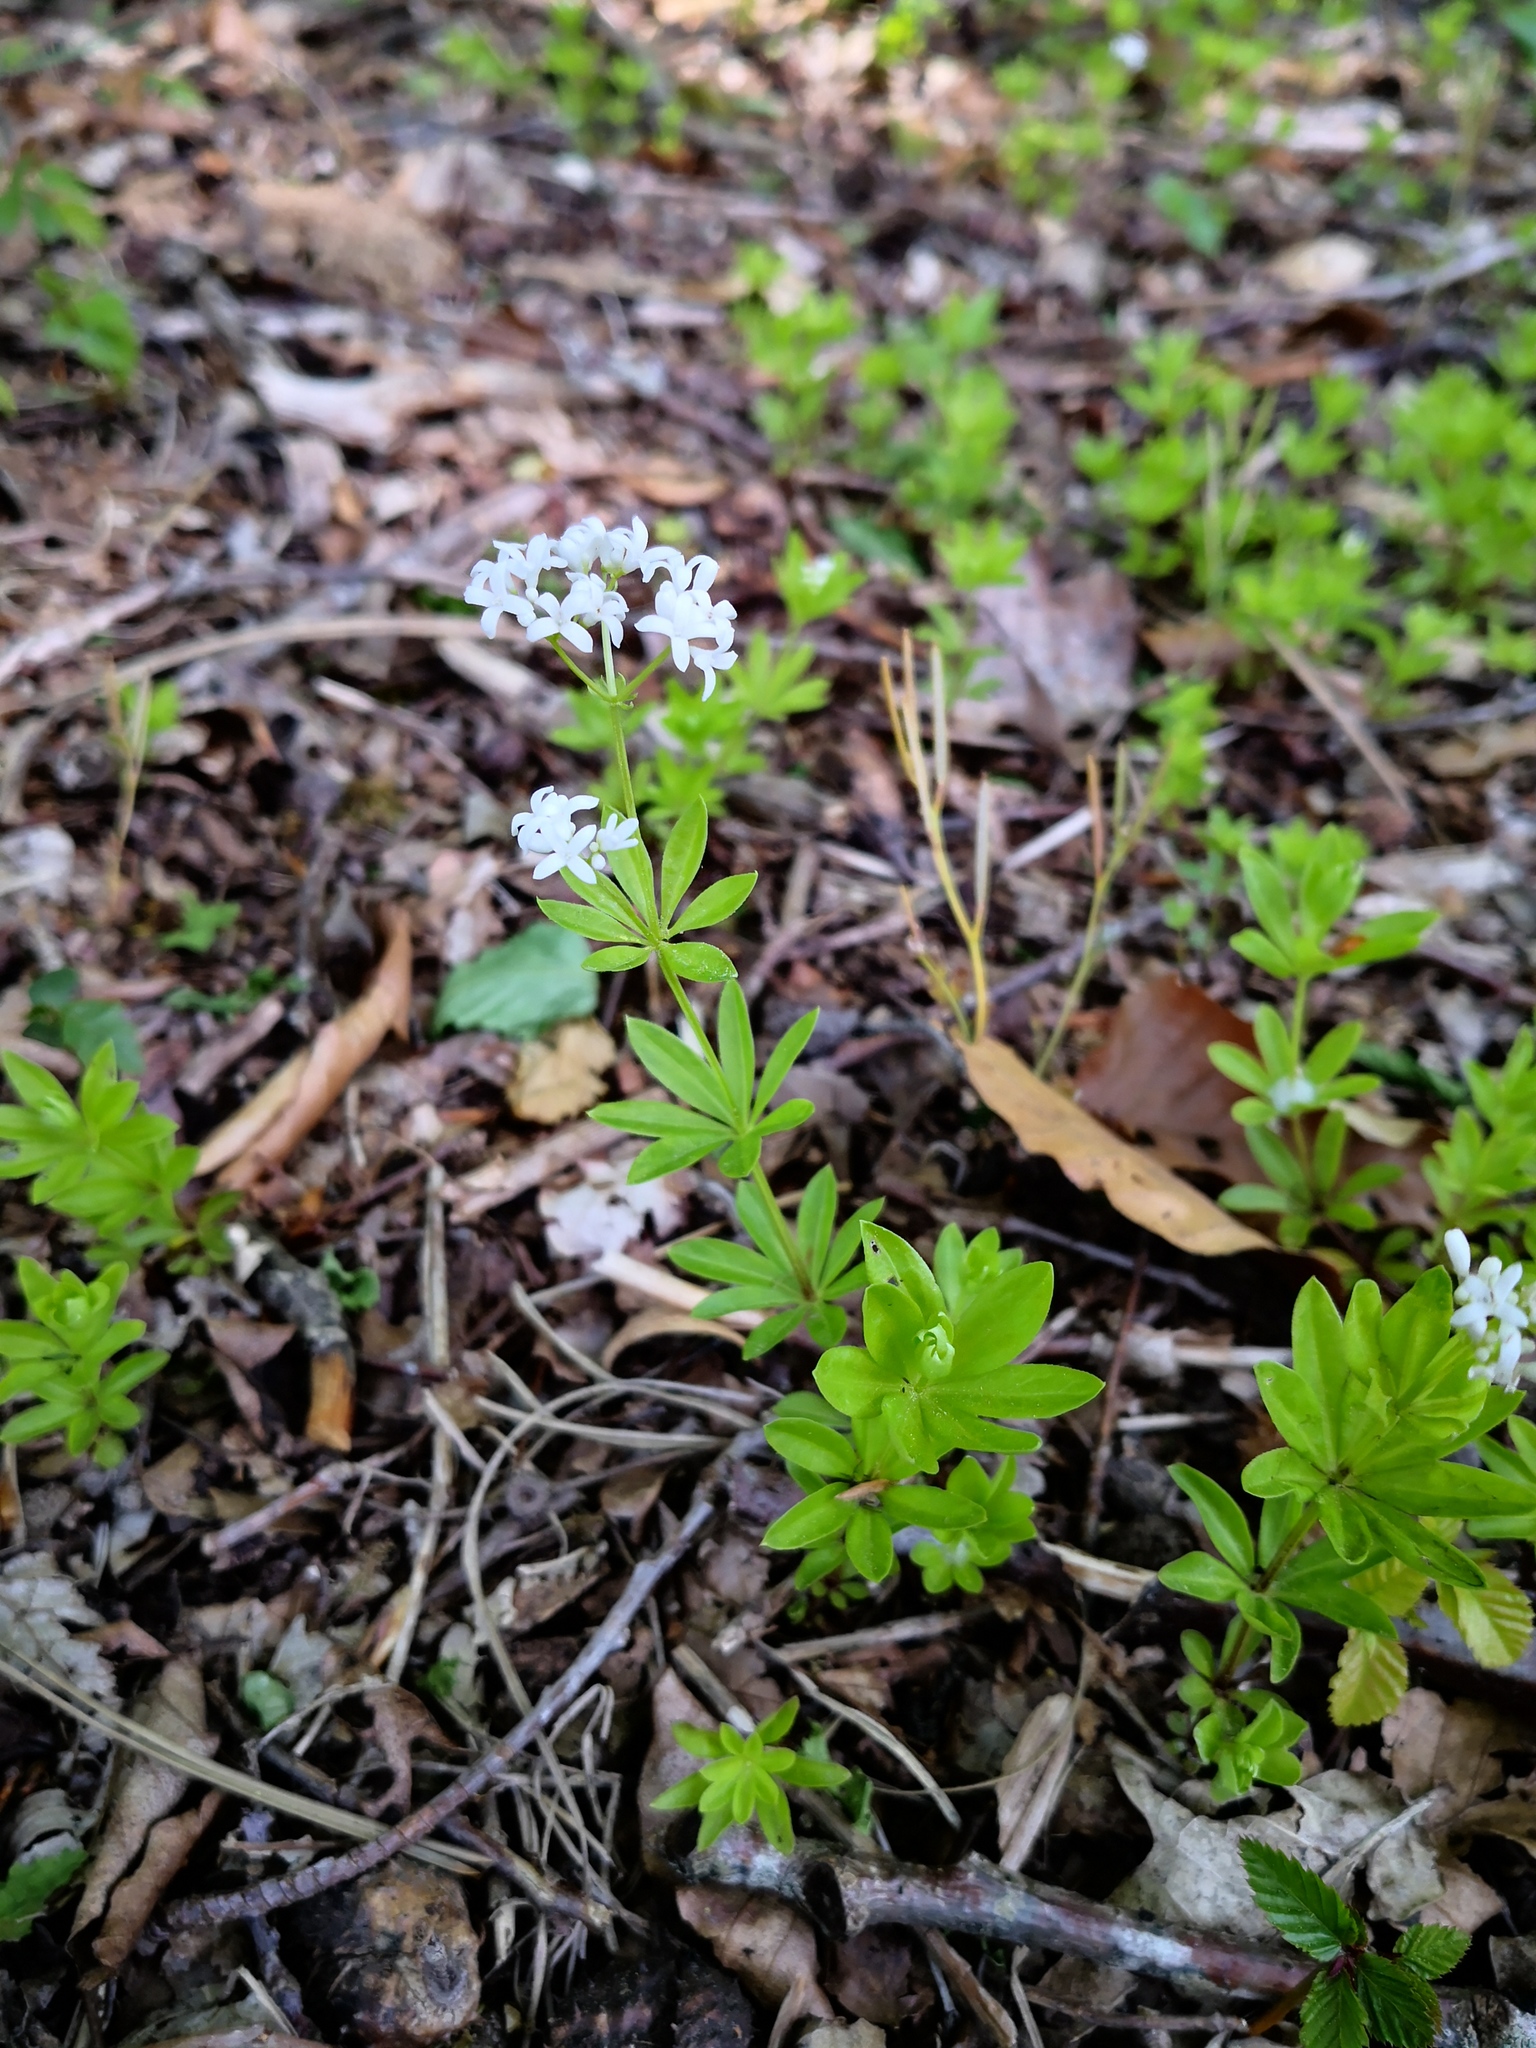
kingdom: Plantae
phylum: Tracheophyta
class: Magnoliopsida
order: Gentianales
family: Rubiaceae
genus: Galium
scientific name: Galium odoratum
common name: Sweet woodruff
